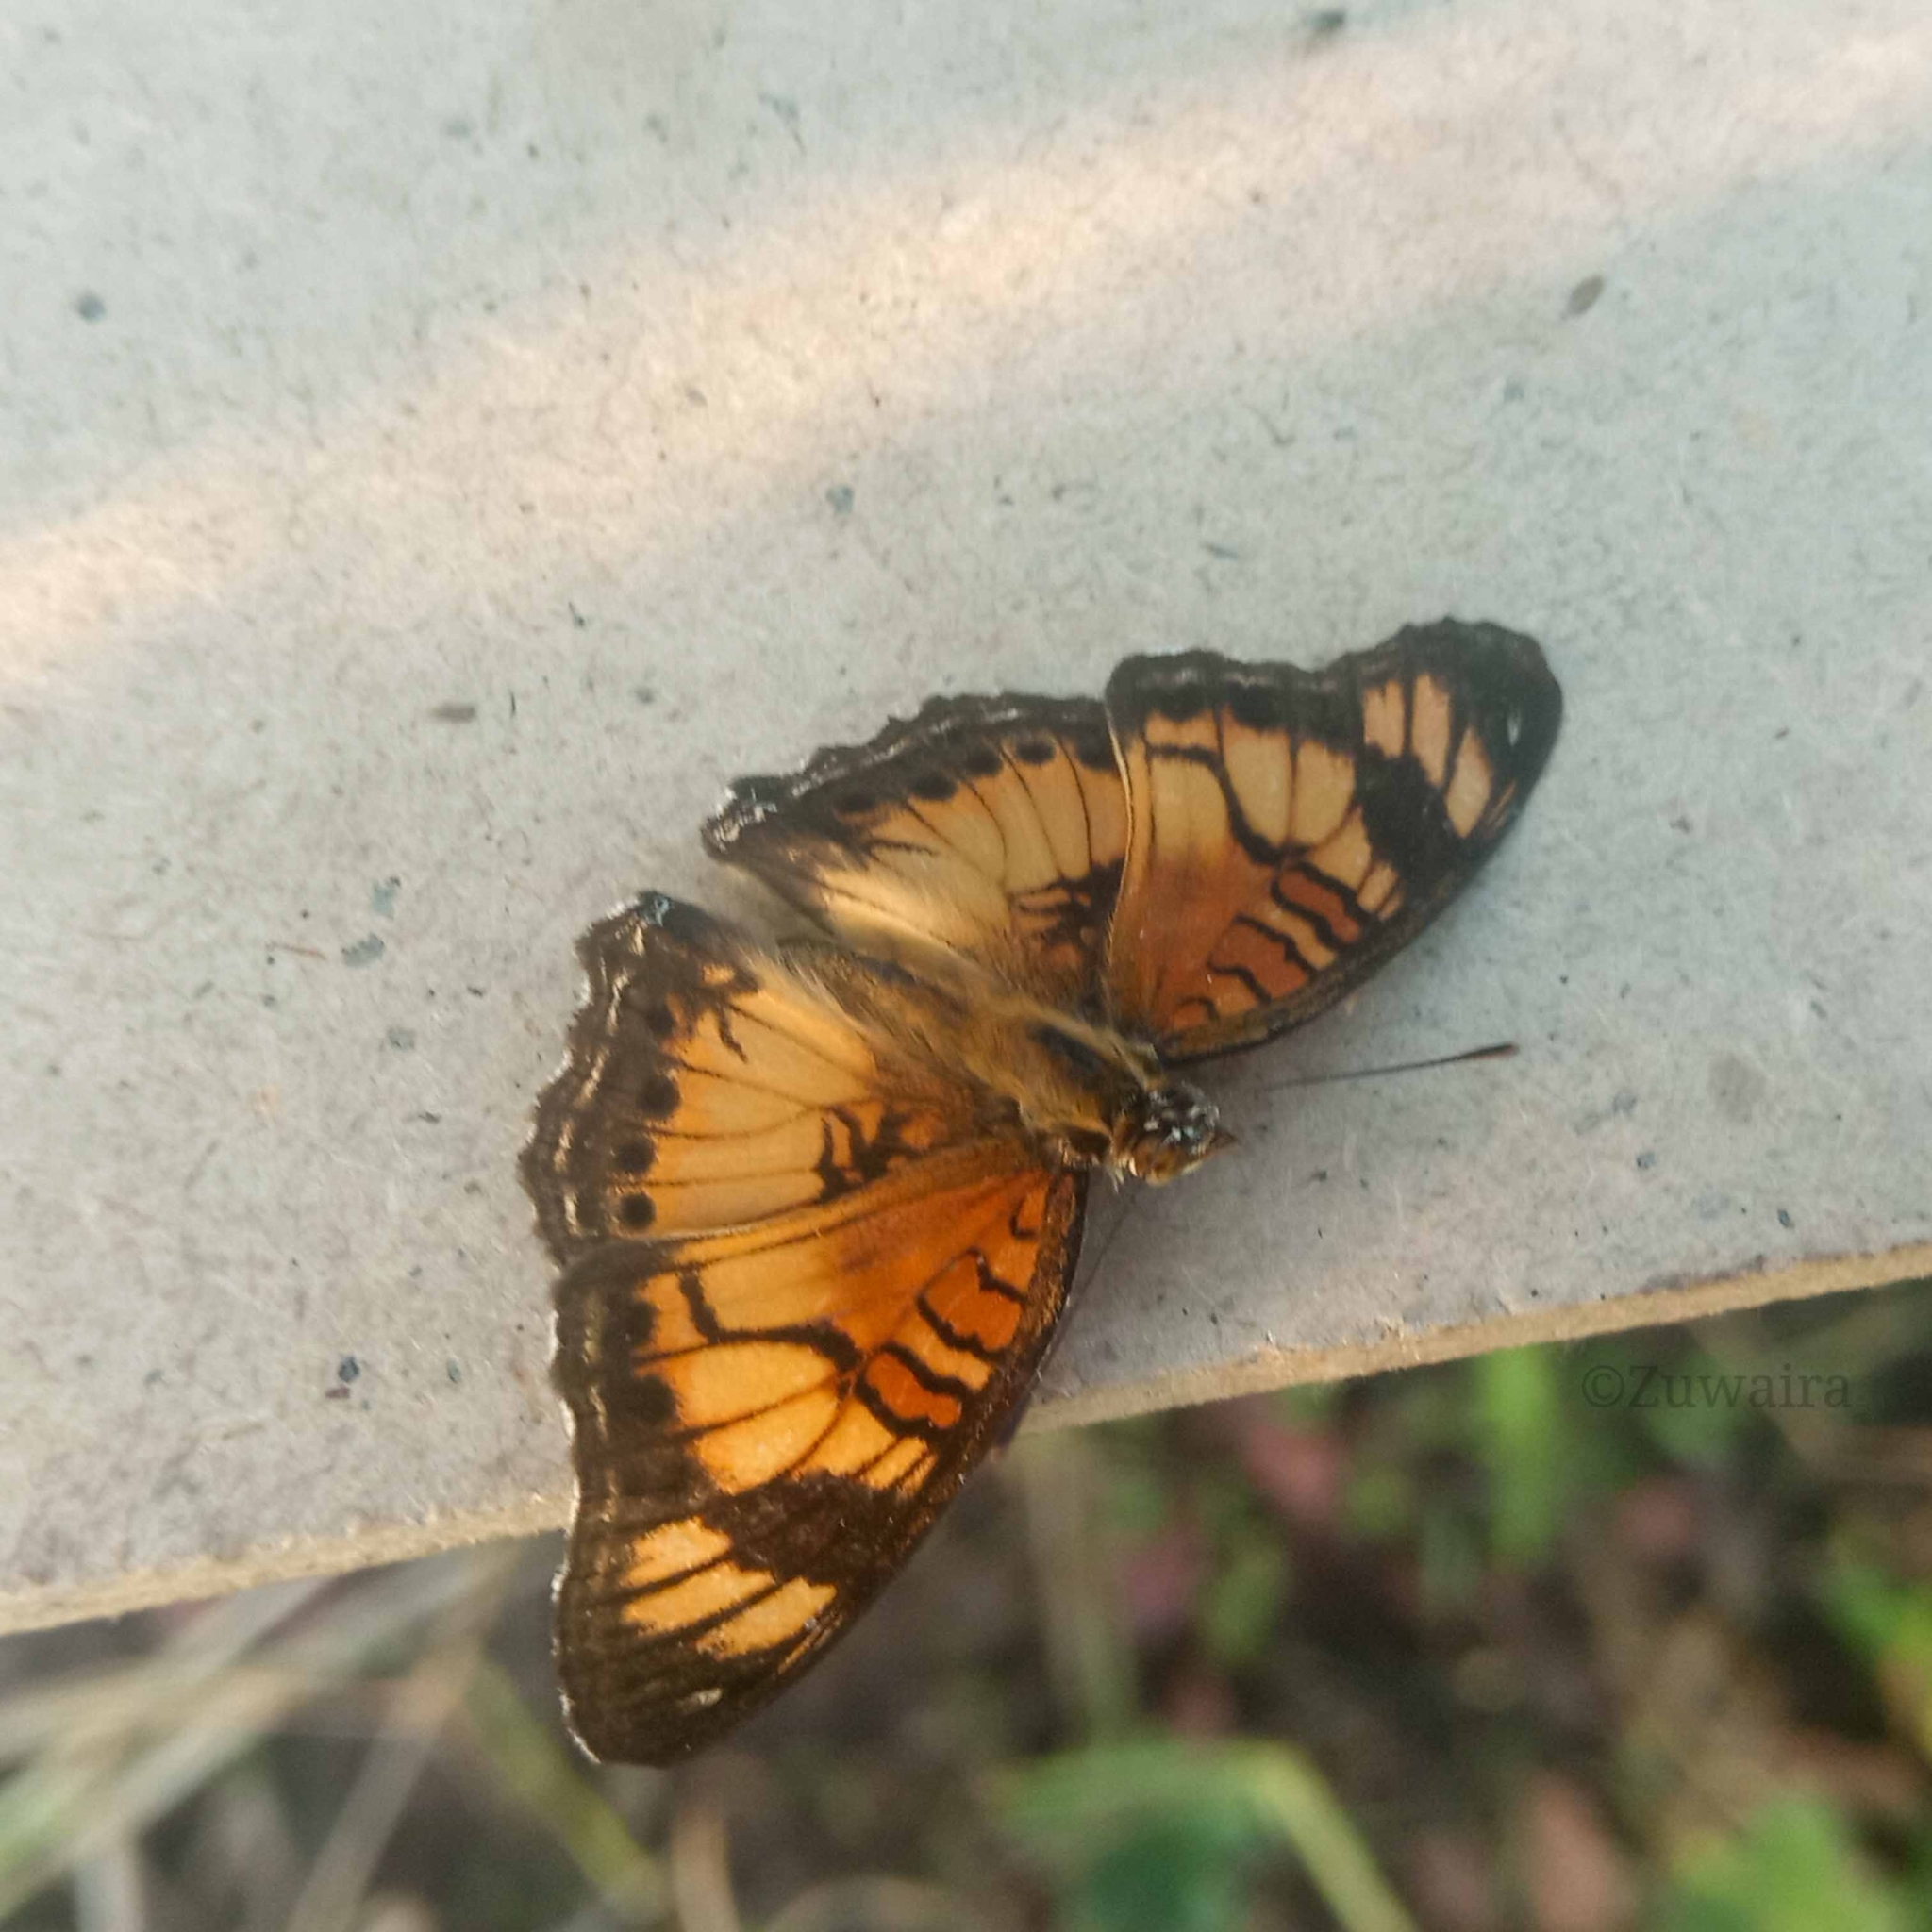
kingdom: Animalia
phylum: Arthropoda
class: Insecta
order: Lepidoptera
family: Nymphalidae
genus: Junonia
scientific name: Junonia sophia
